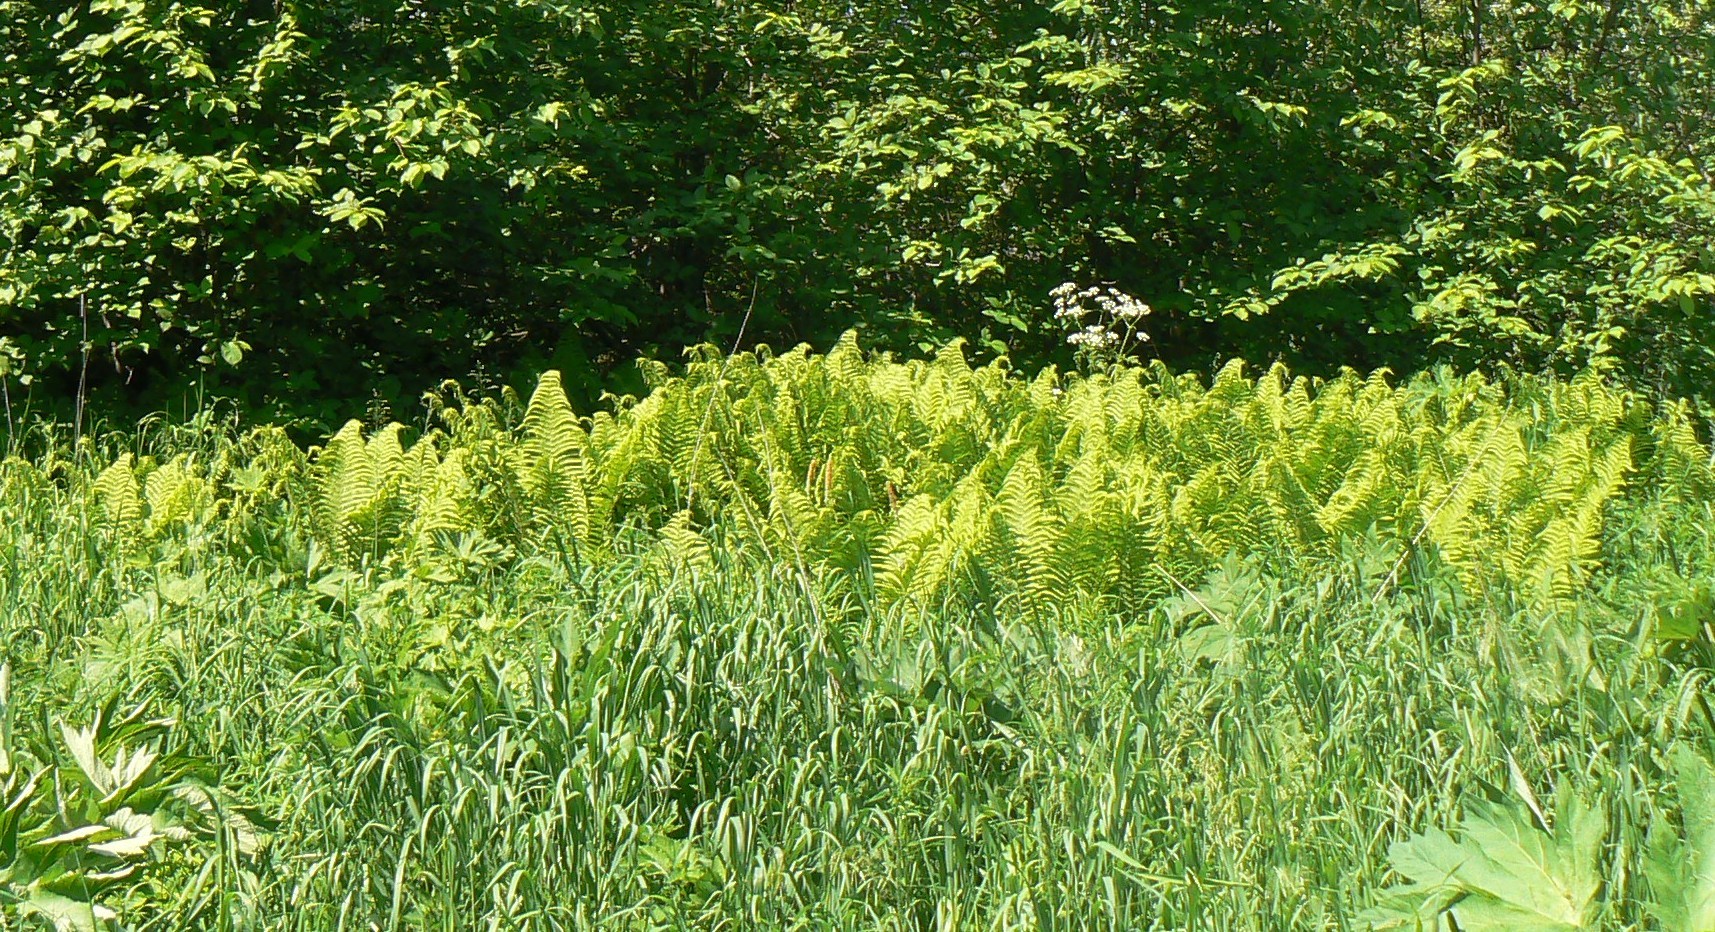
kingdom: Plantae
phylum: Tracheophyta
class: Polypodiopsida
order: Polypodiales
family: Onocleaceae
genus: Matteuccia
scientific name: Matteuccia struthiopteris
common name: Ostrich fern
